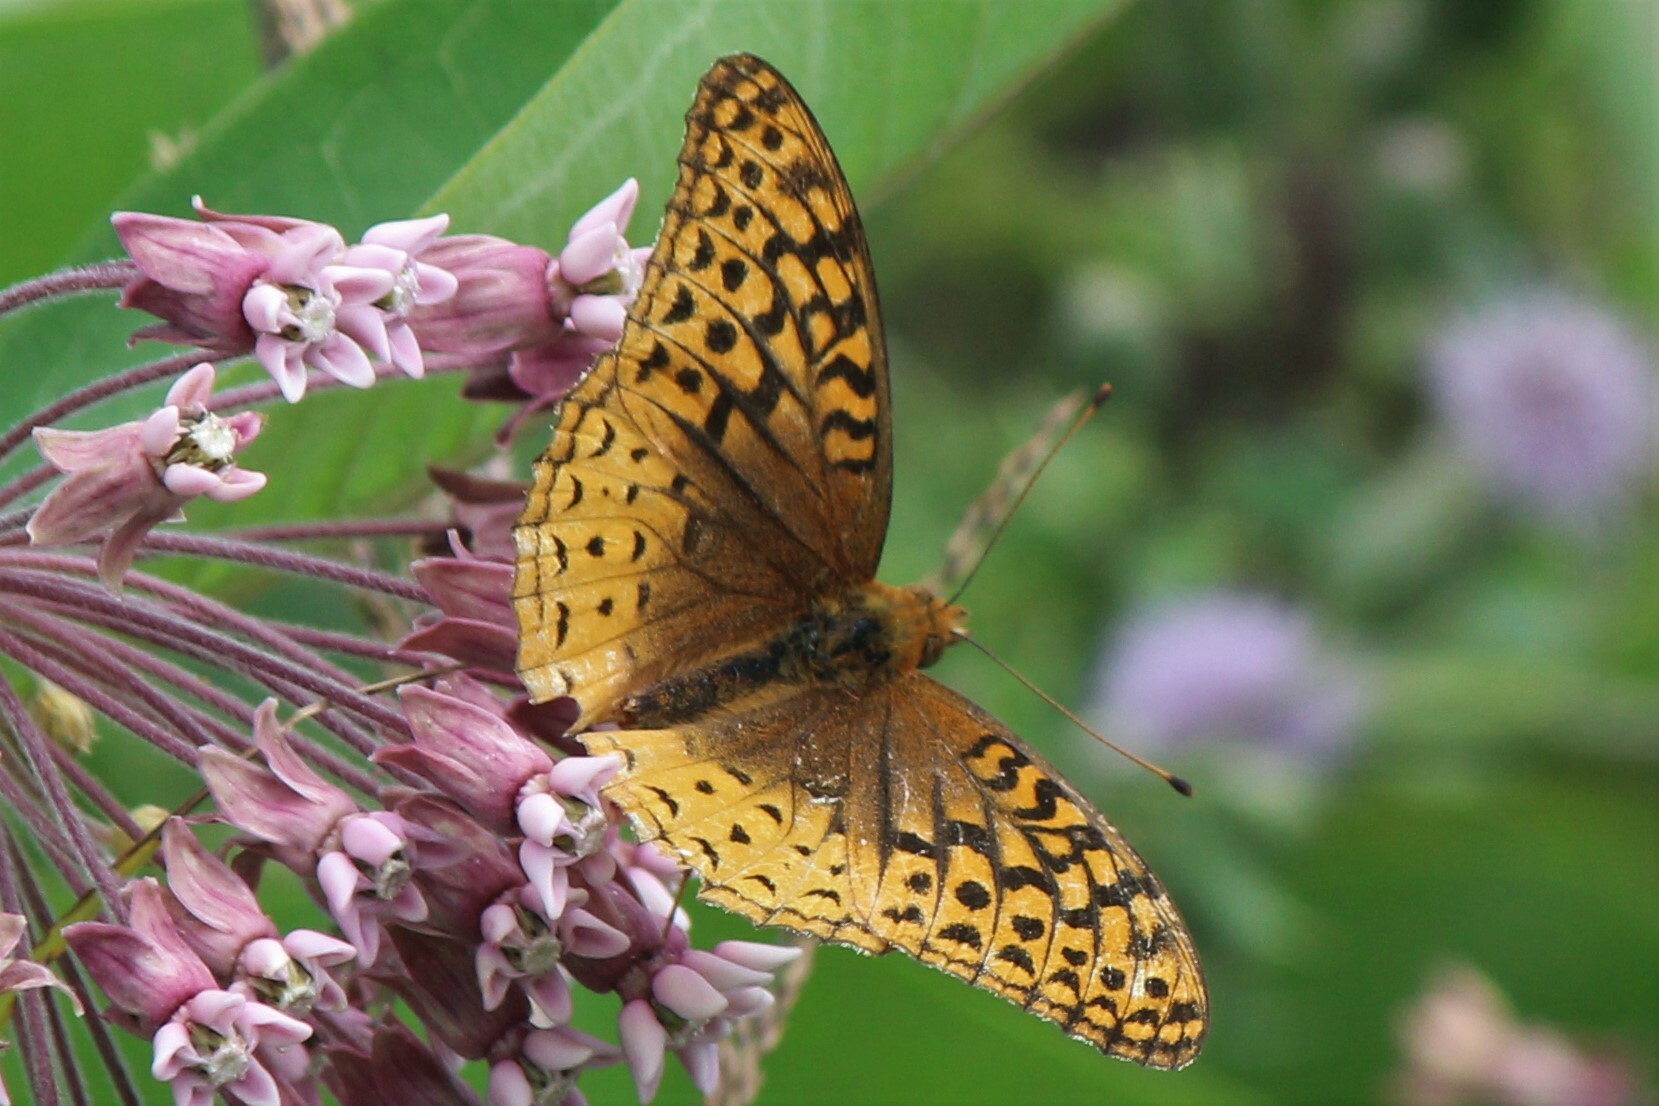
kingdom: Animalia
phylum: Arthropoda
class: Insecta
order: Lepidoptera
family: Nymphalidae
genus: Speyeria
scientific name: Speyeria cybele
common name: Great spangled fritillary
